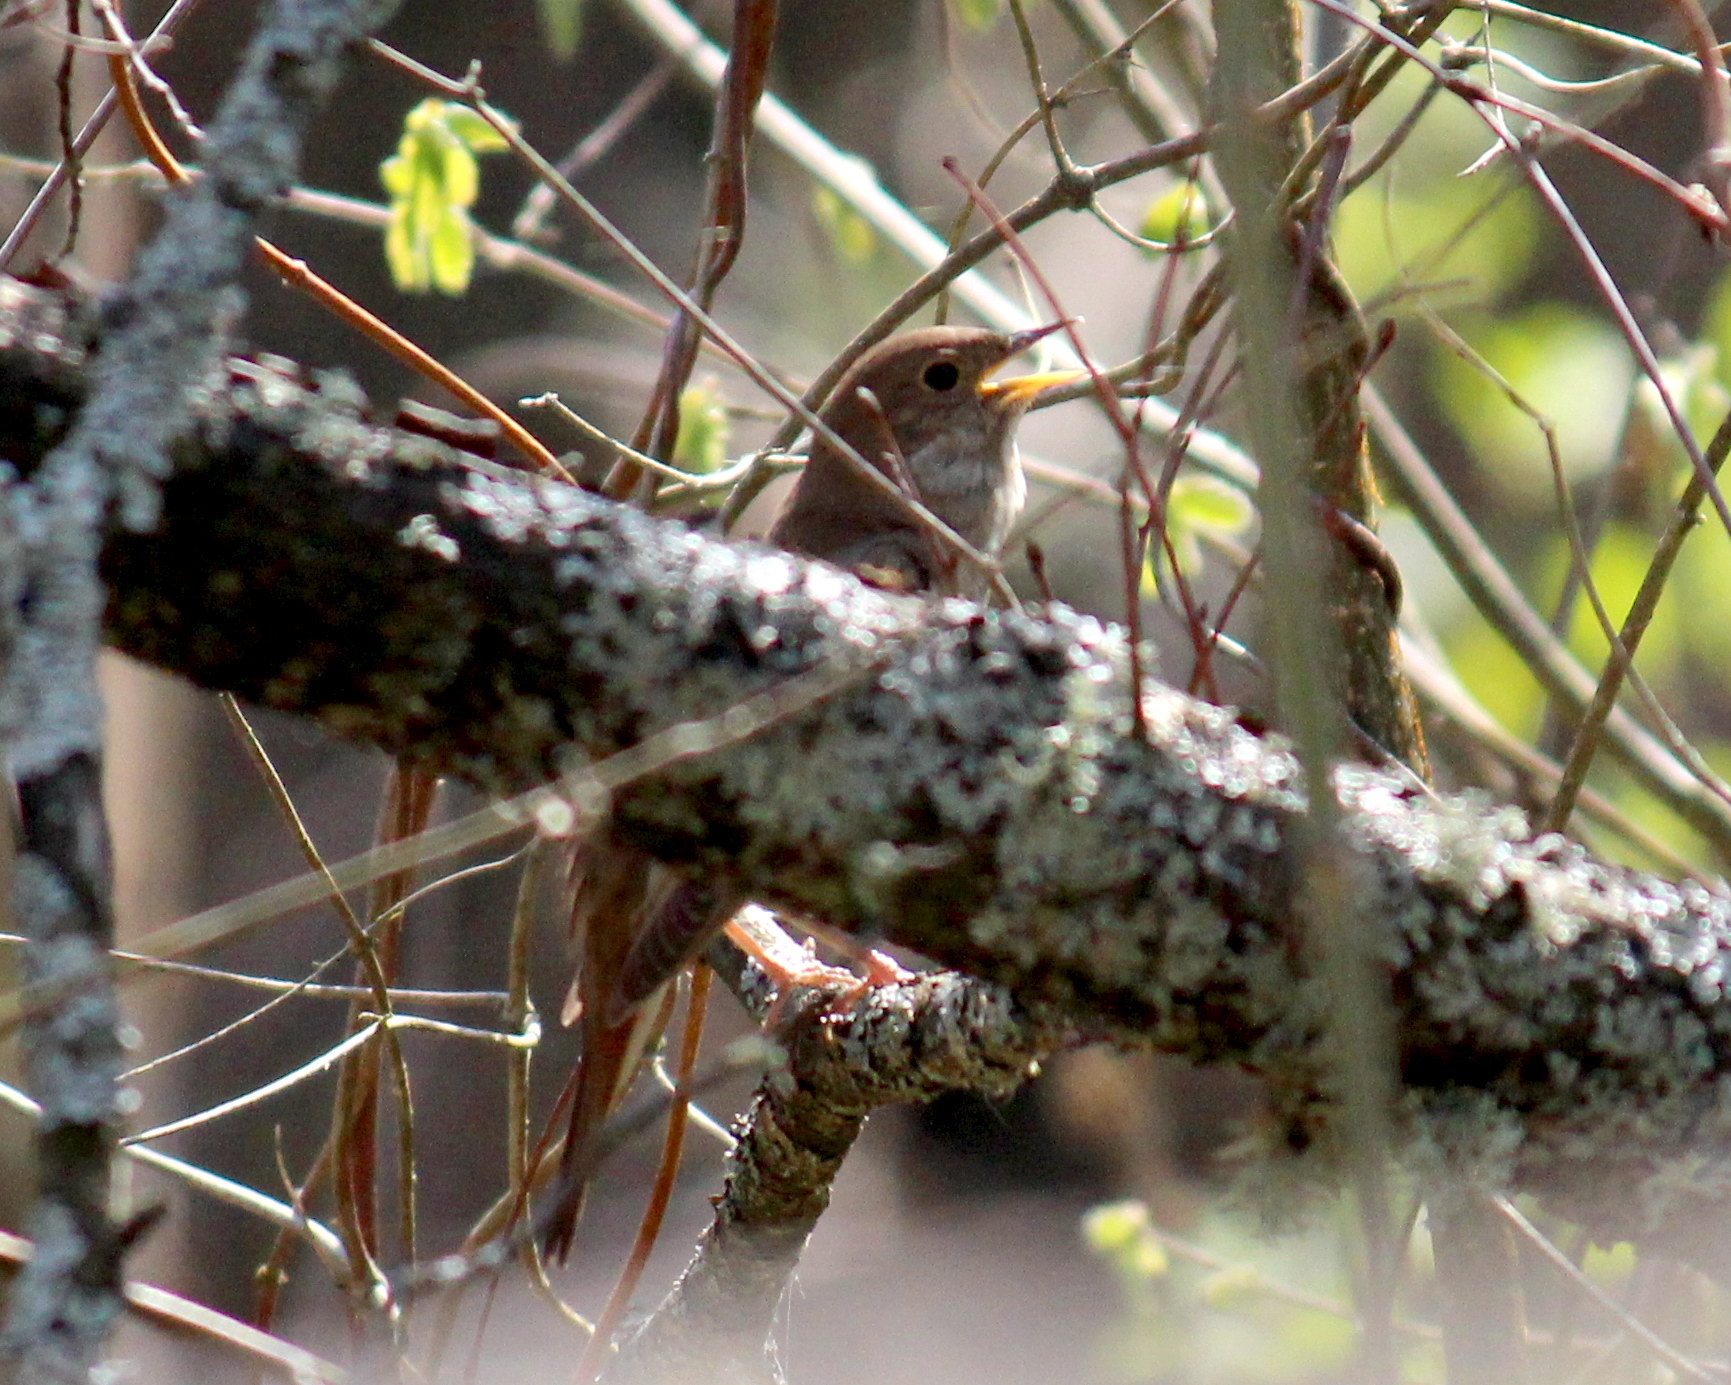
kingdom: Animalia
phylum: Chordata
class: Aves
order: Passeriformes
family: Muscicapidae
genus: Luscinia
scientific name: Luscinia luscinia
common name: Thrush nightingale
